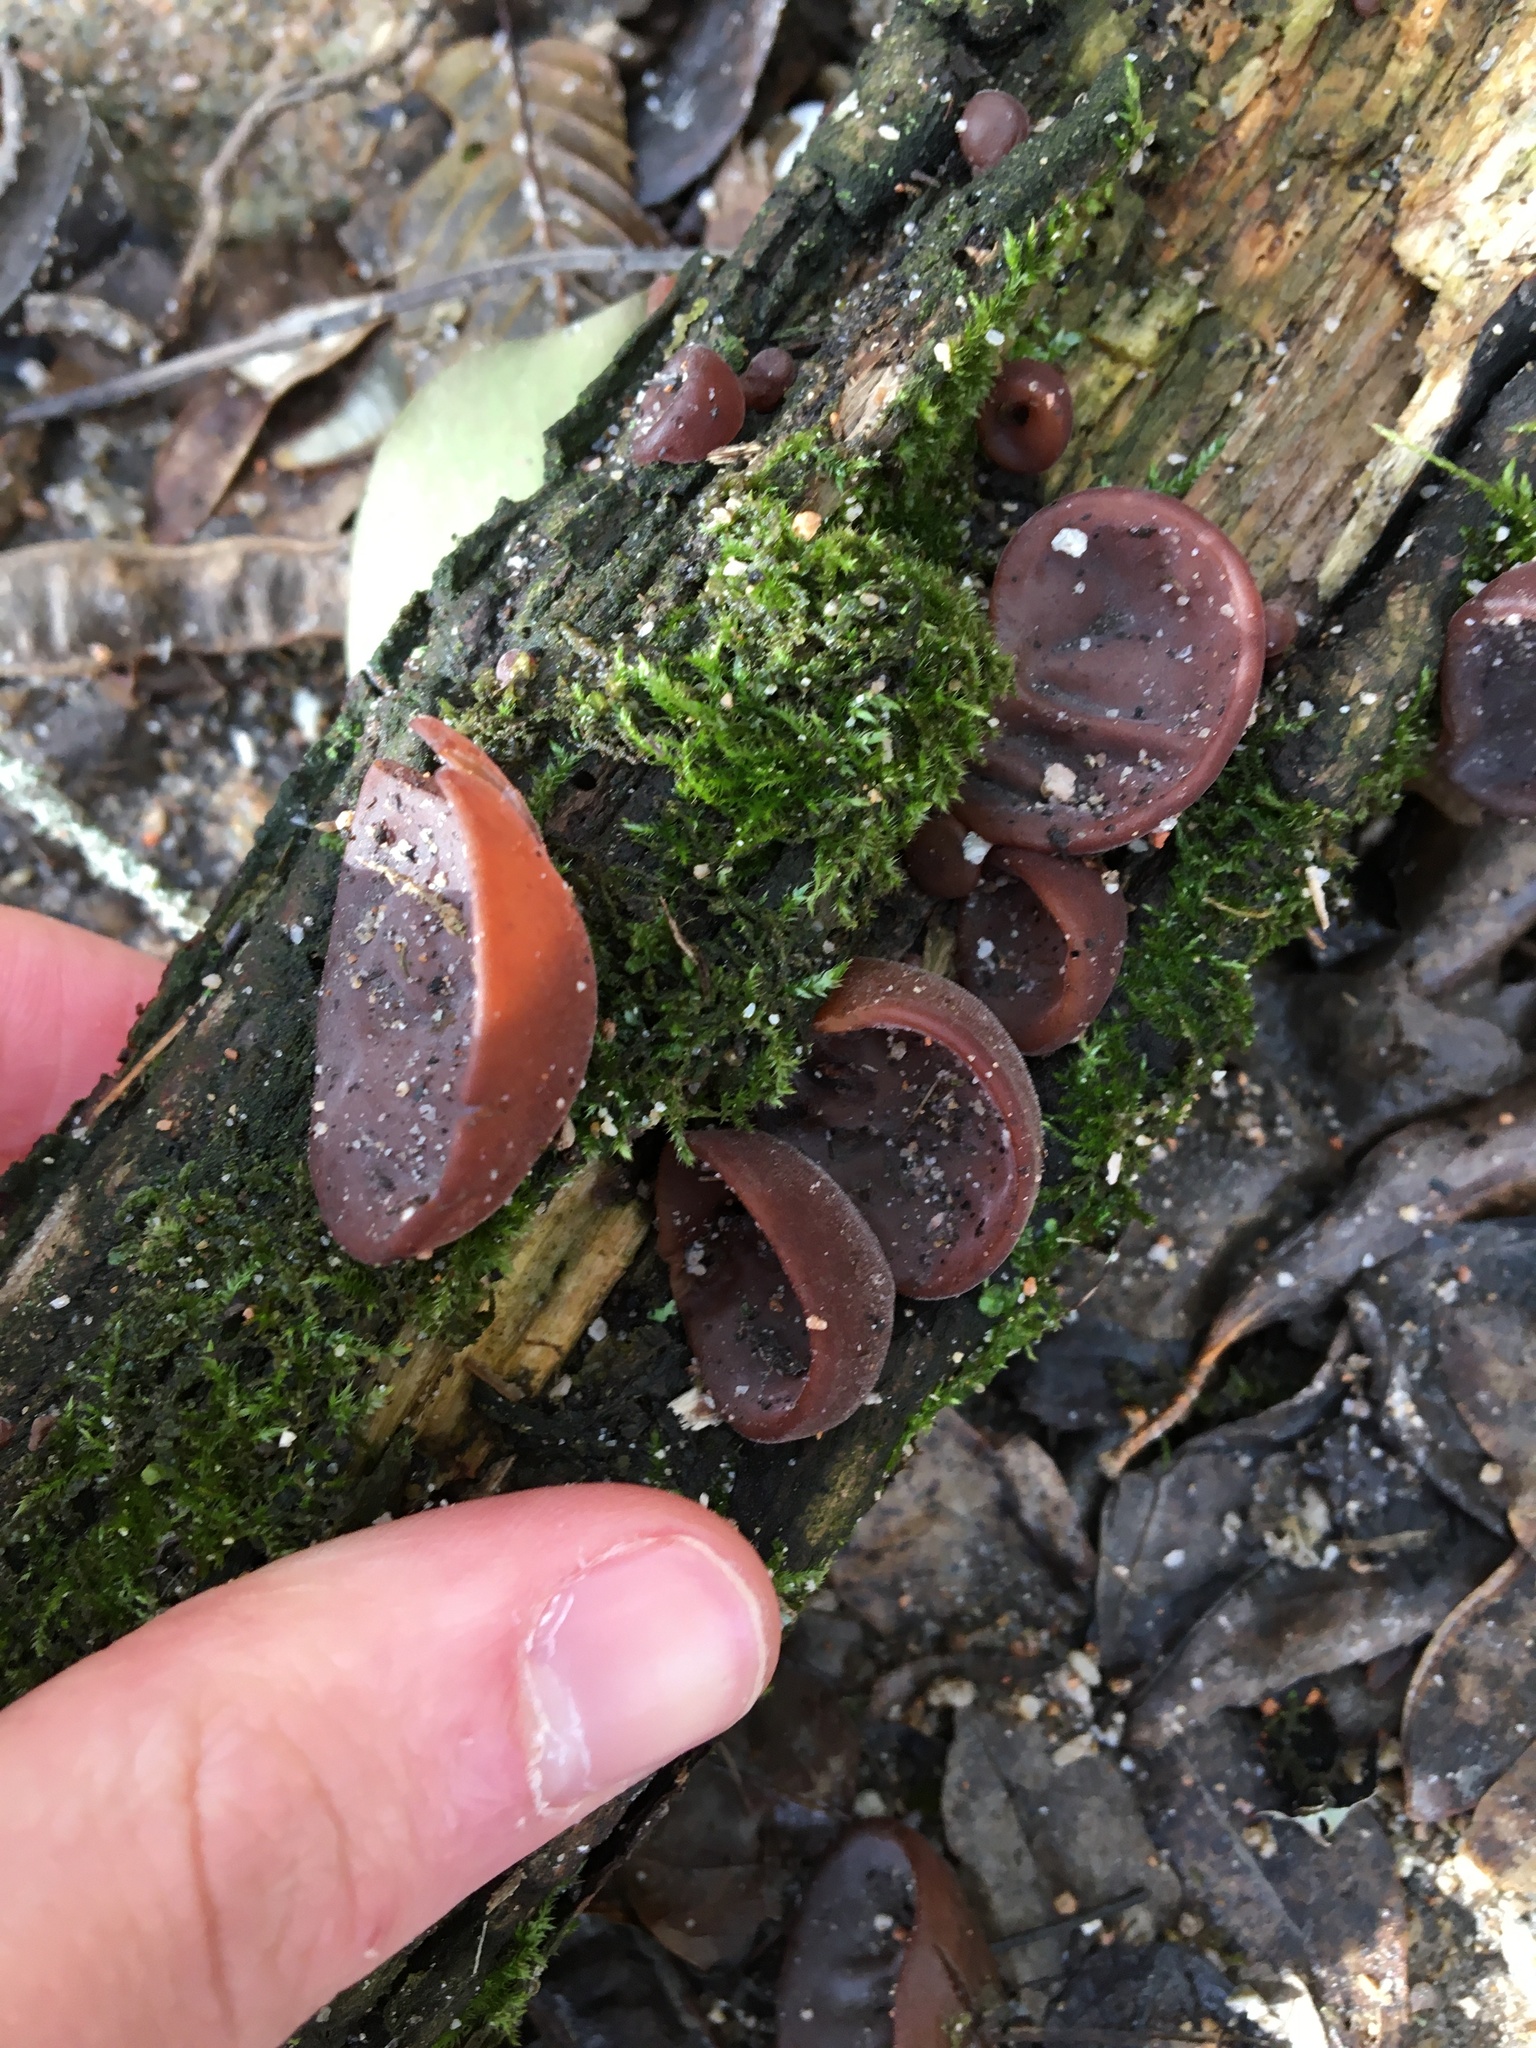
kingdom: Fungi
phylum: Basidiomycota
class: Agaricomycetes
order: Auriculariales
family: Auriculariaceae
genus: Auricularia
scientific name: Auricularia auricula-judae
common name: Jelly ear
